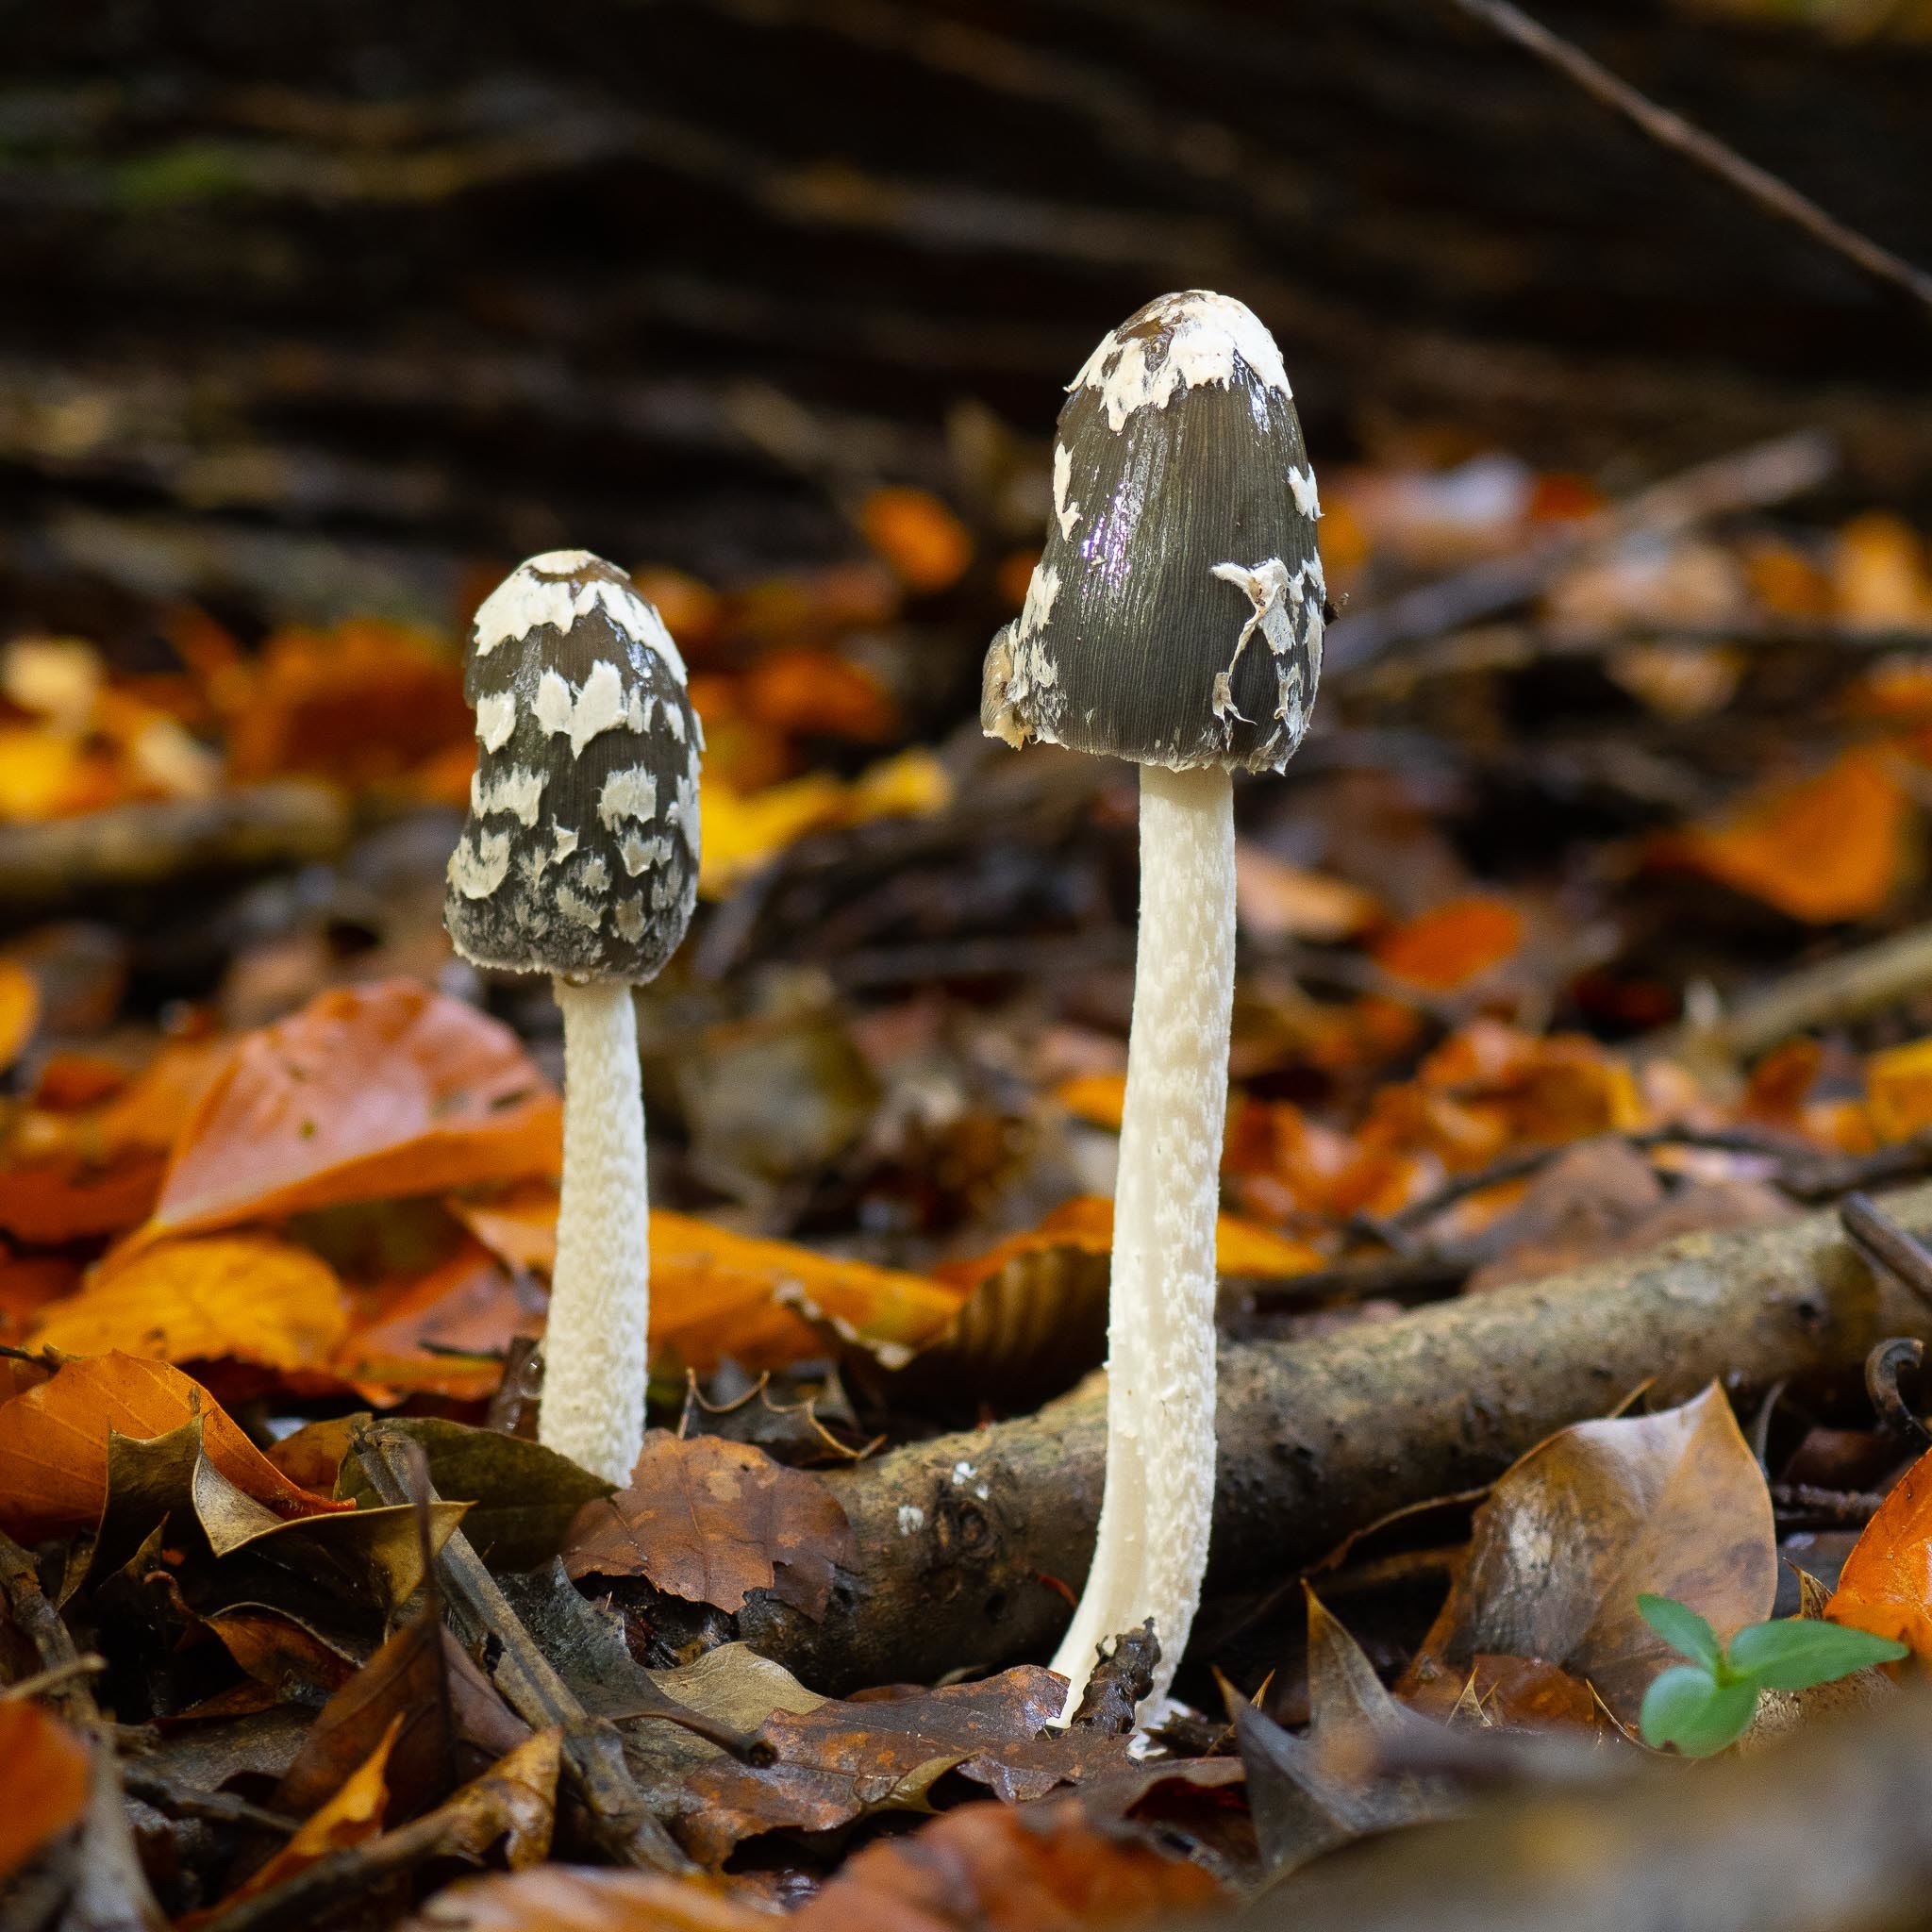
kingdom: Fungi
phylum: Basidiomycota
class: Agaricomycetes
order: Agaricales
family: Psathyrellaceae
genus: Coprinopsis
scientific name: Coprinopsis picacea
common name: Magpie inkcap
